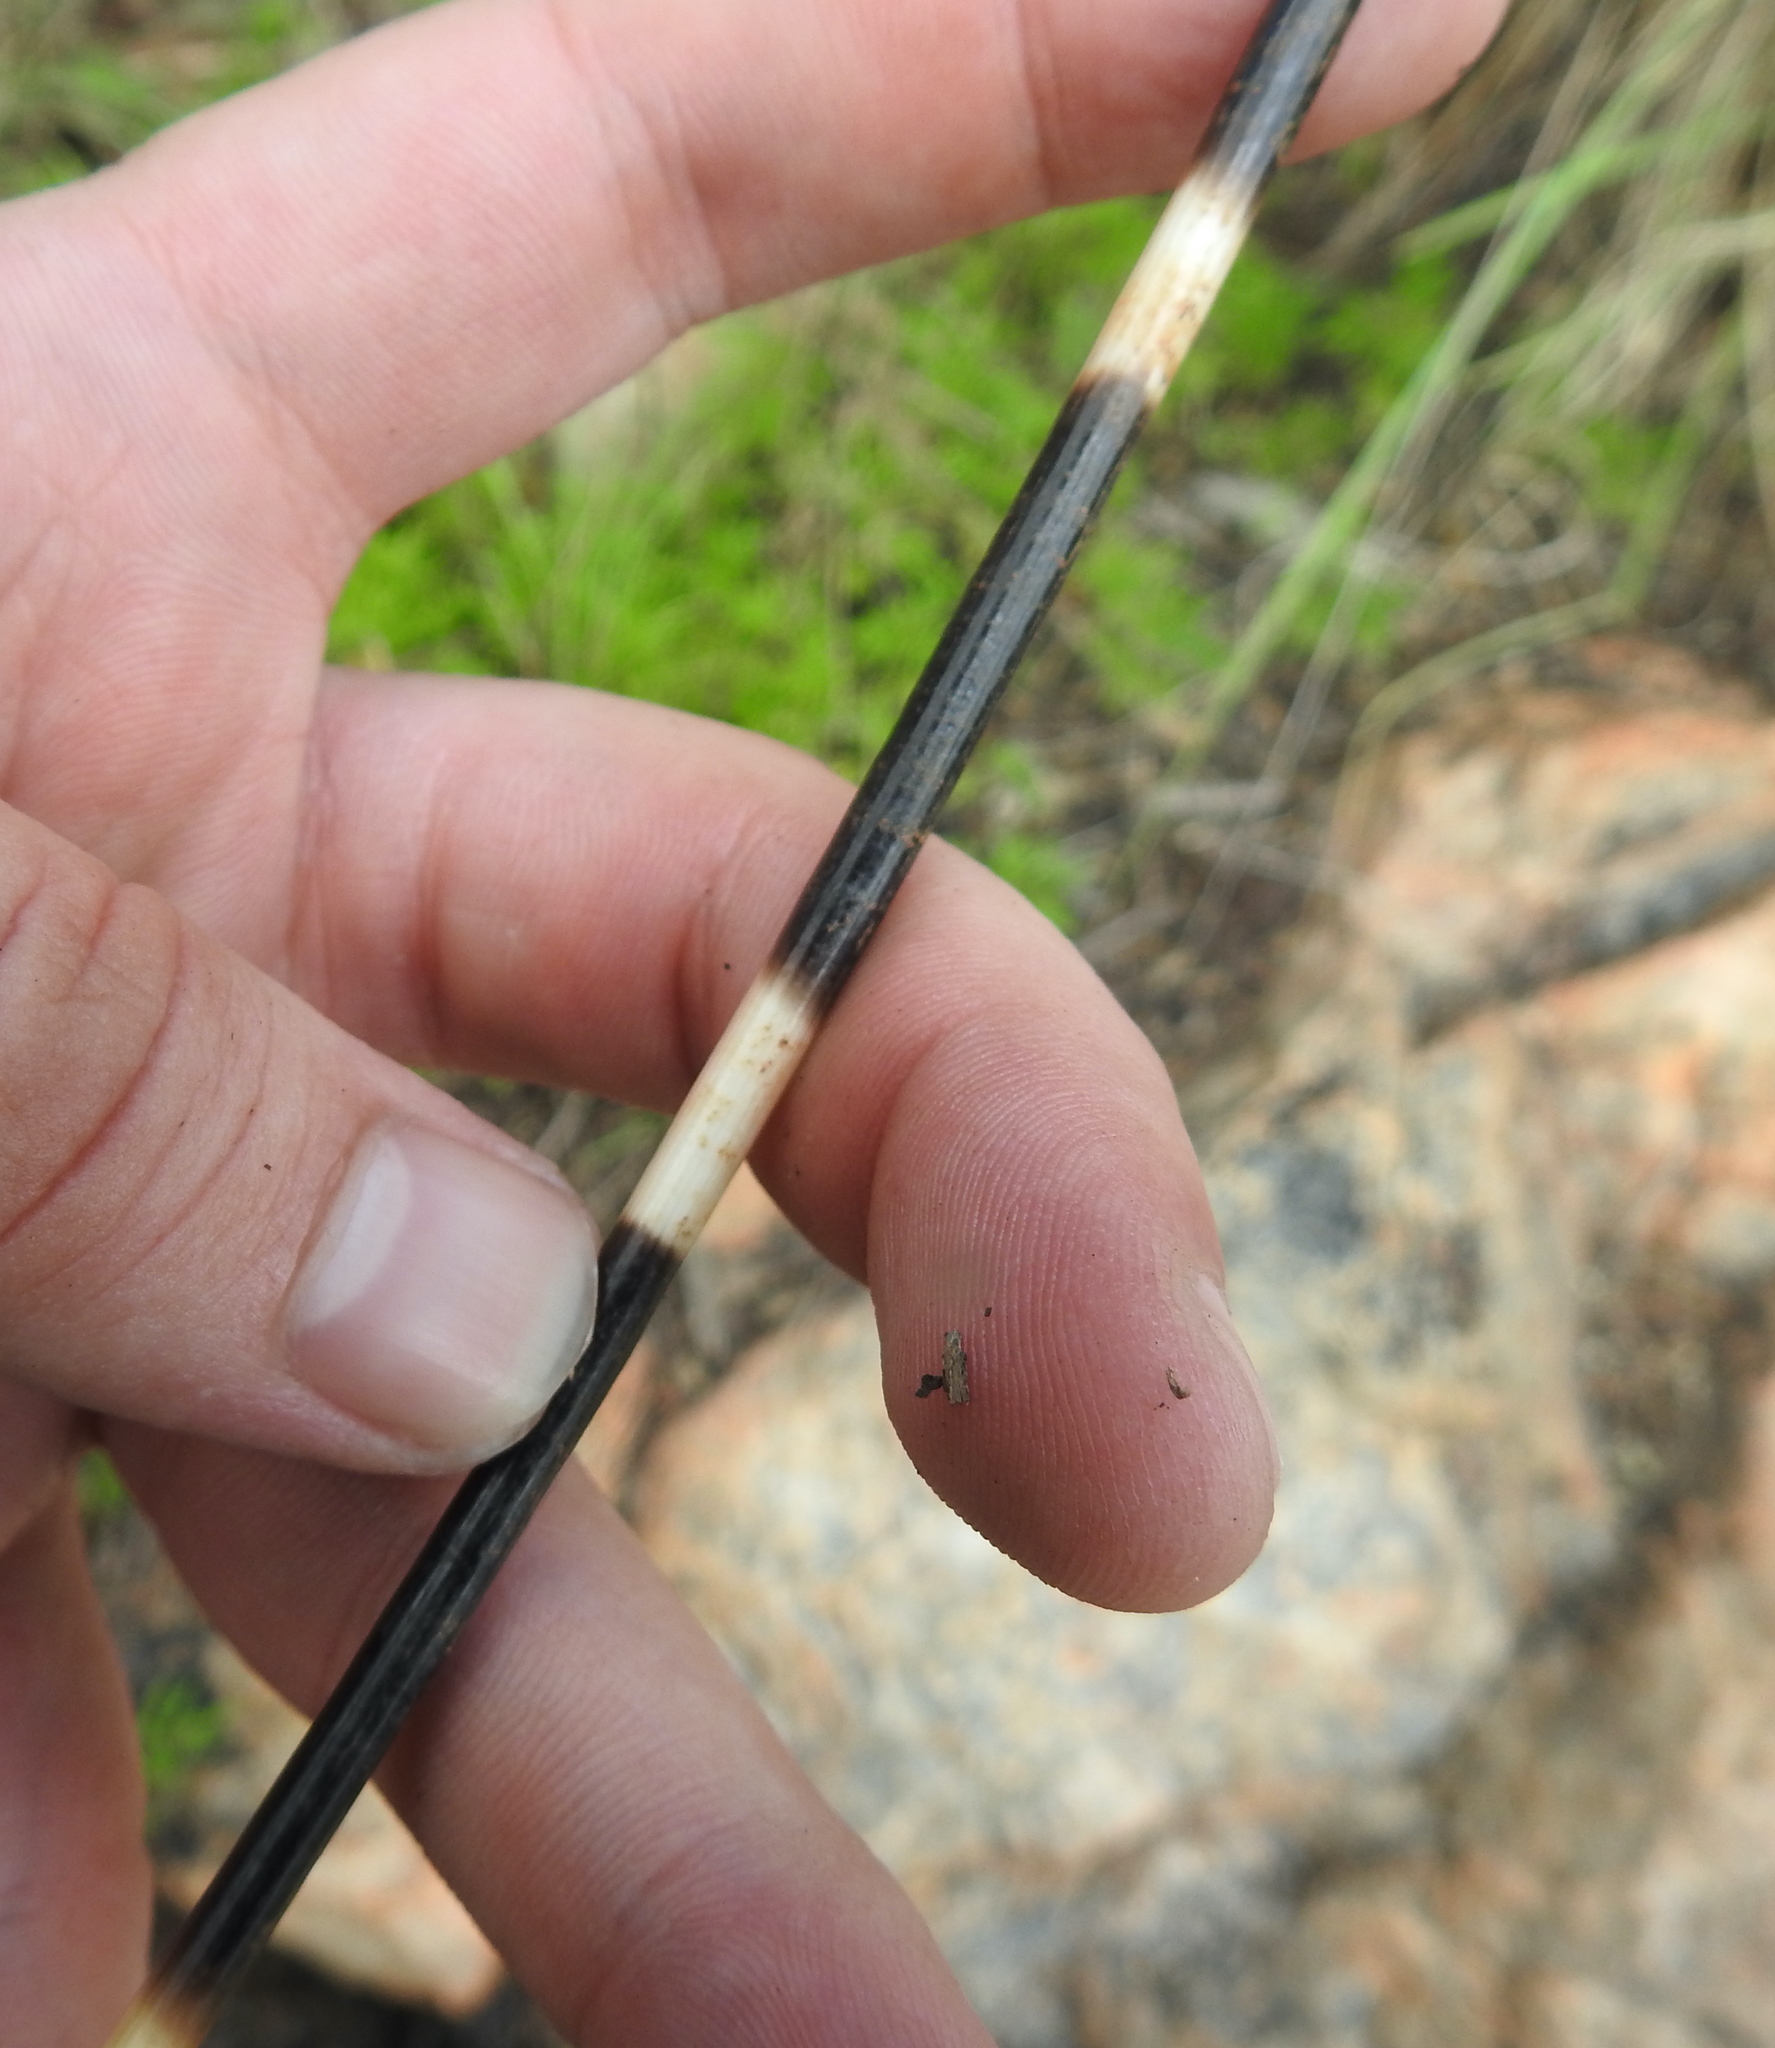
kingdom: Animalia
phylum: Chordata
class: Mammalia
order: Rodentia
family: Hystricidae
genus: Hystrix
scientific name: Hystrix africaeaustralis
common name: Cape porcupine
